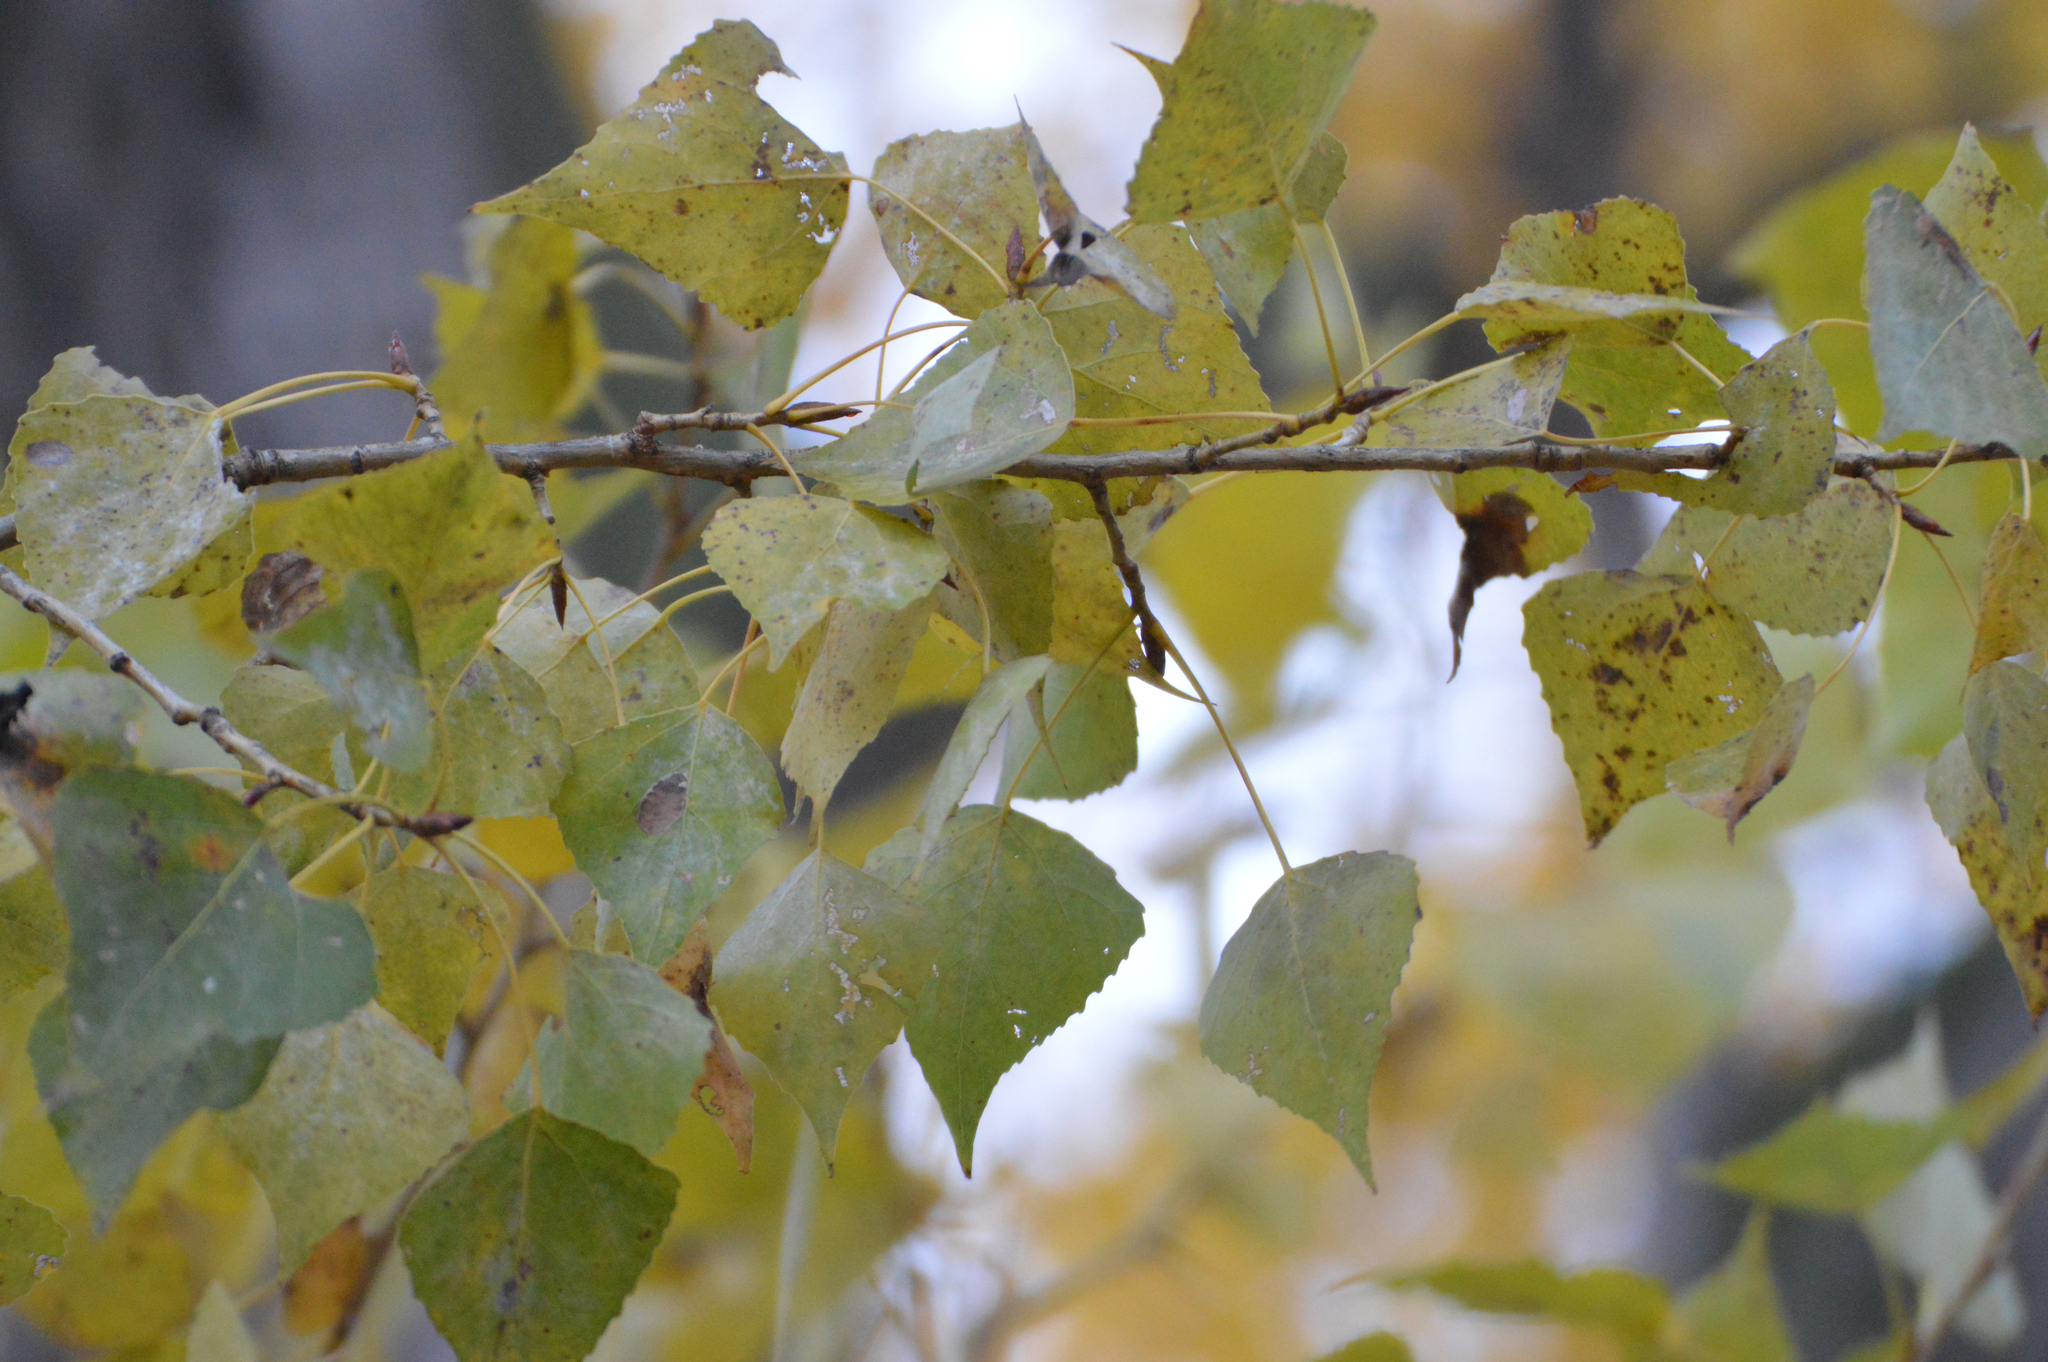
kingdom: Plantae
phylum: Tracheophyta
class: Magnoliopsida
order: Malpighiales
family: Salicaceae
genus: Populus
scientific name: Populus nigra
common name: Black poplar
